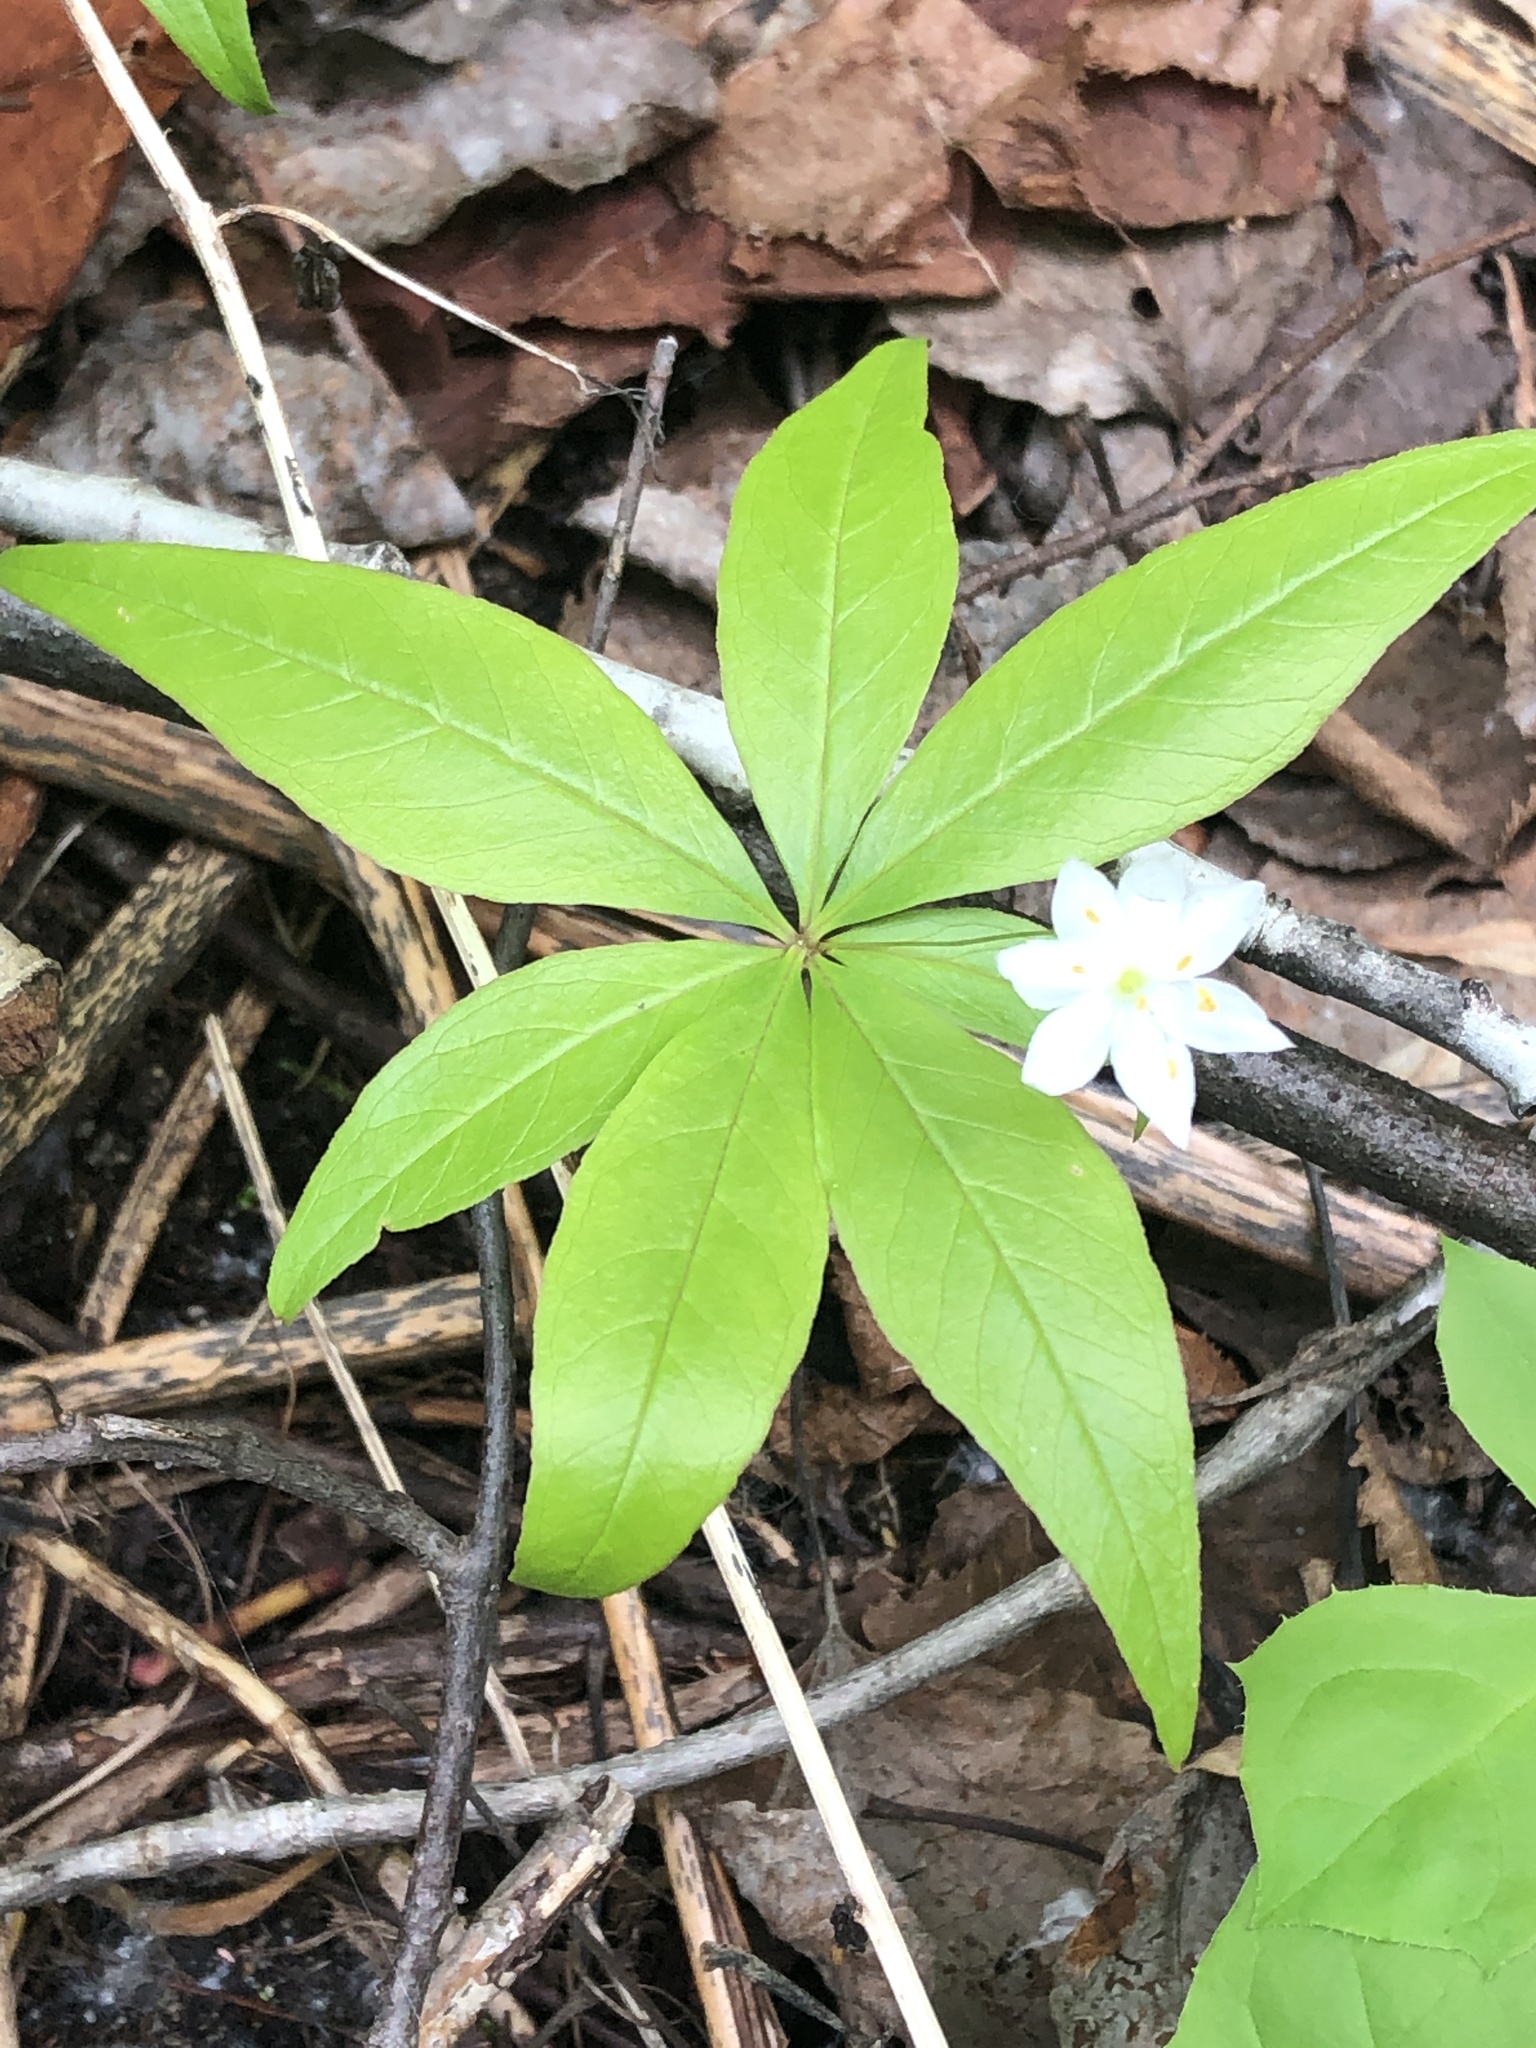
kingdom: Plantae
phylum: Tracheophyta
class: Magnoliopsida
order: Ericales
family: Primulaceae
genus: Lysimachia
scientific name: Lysimachia borealis
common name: American starflower
